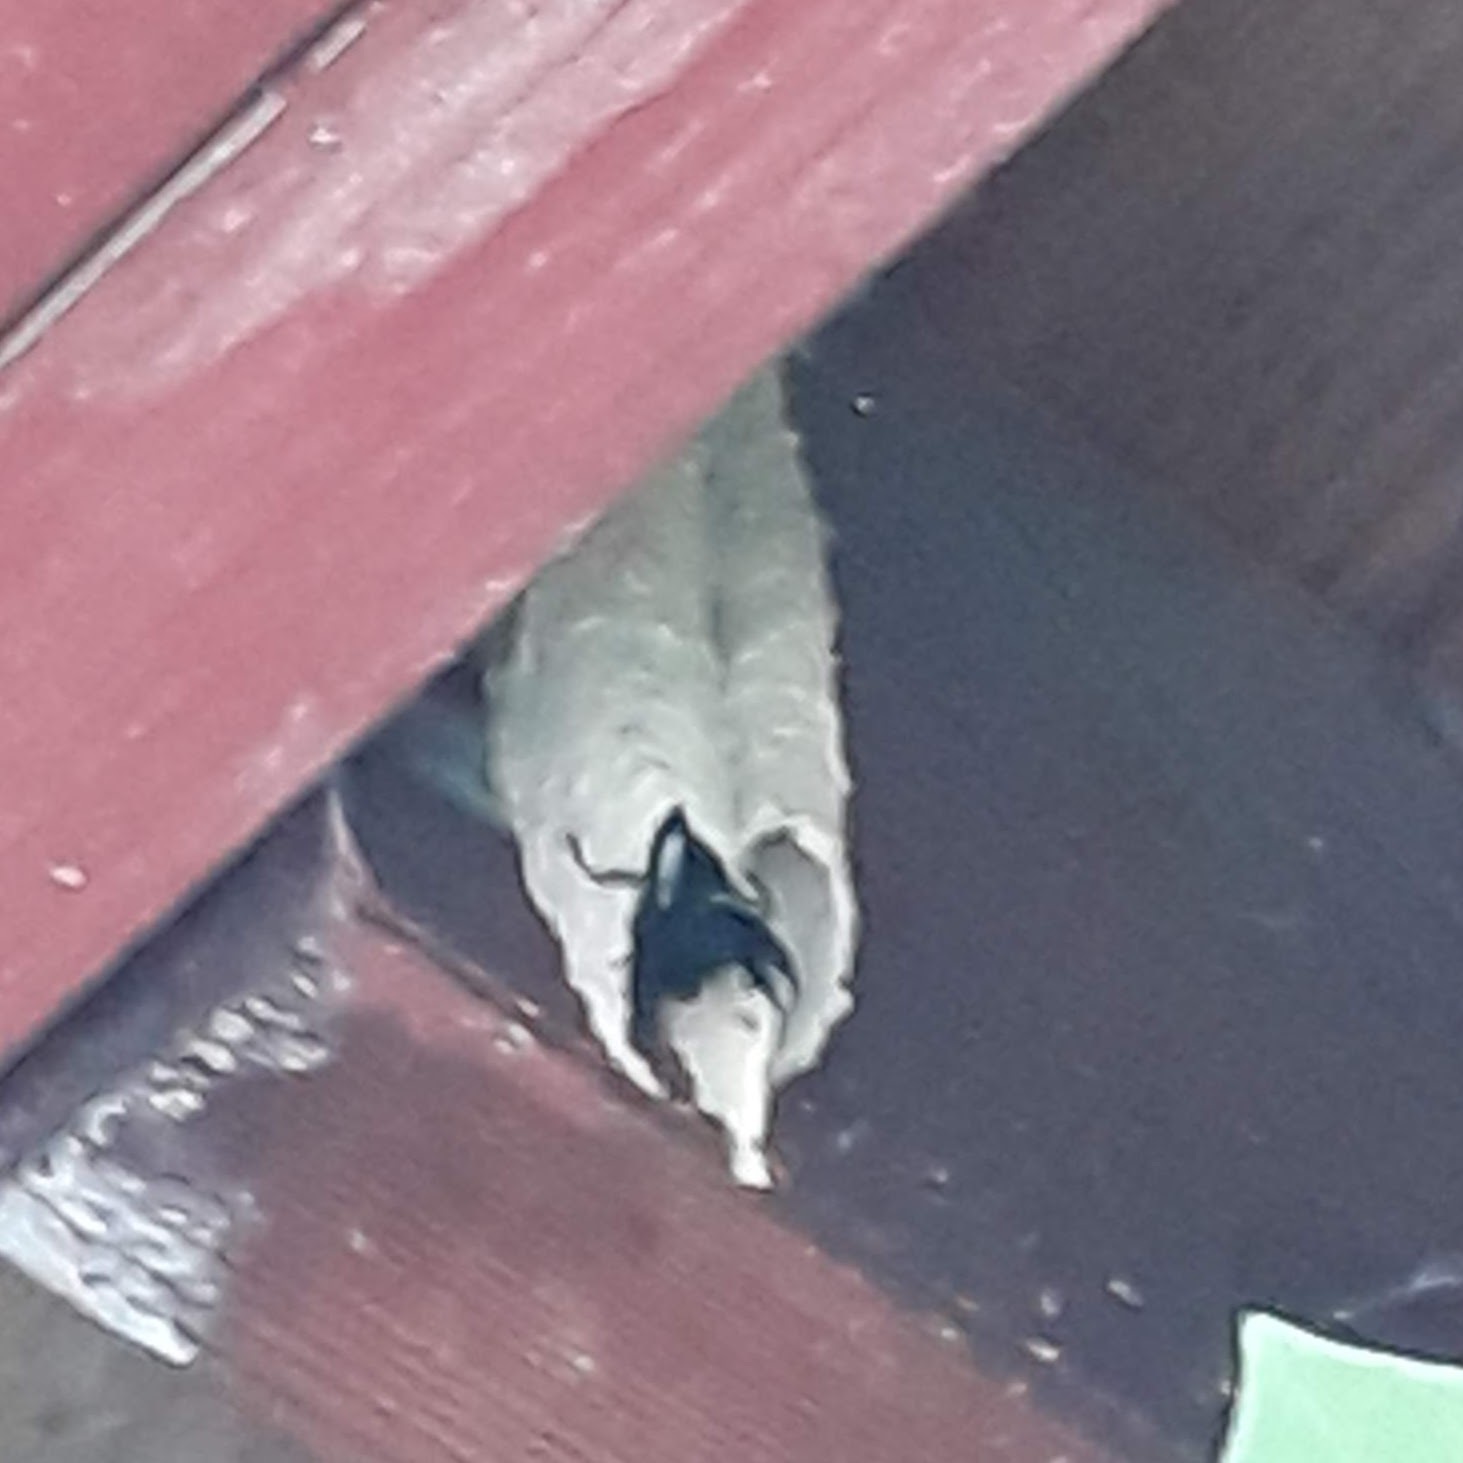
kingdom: Animalia
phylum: Arthropoda
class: Insecta
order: Hymenoptera
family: Crabronidae
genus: Trypoxylon
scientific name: Trypoxylon politum
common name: Organ-pipe mud-dauber wasp
